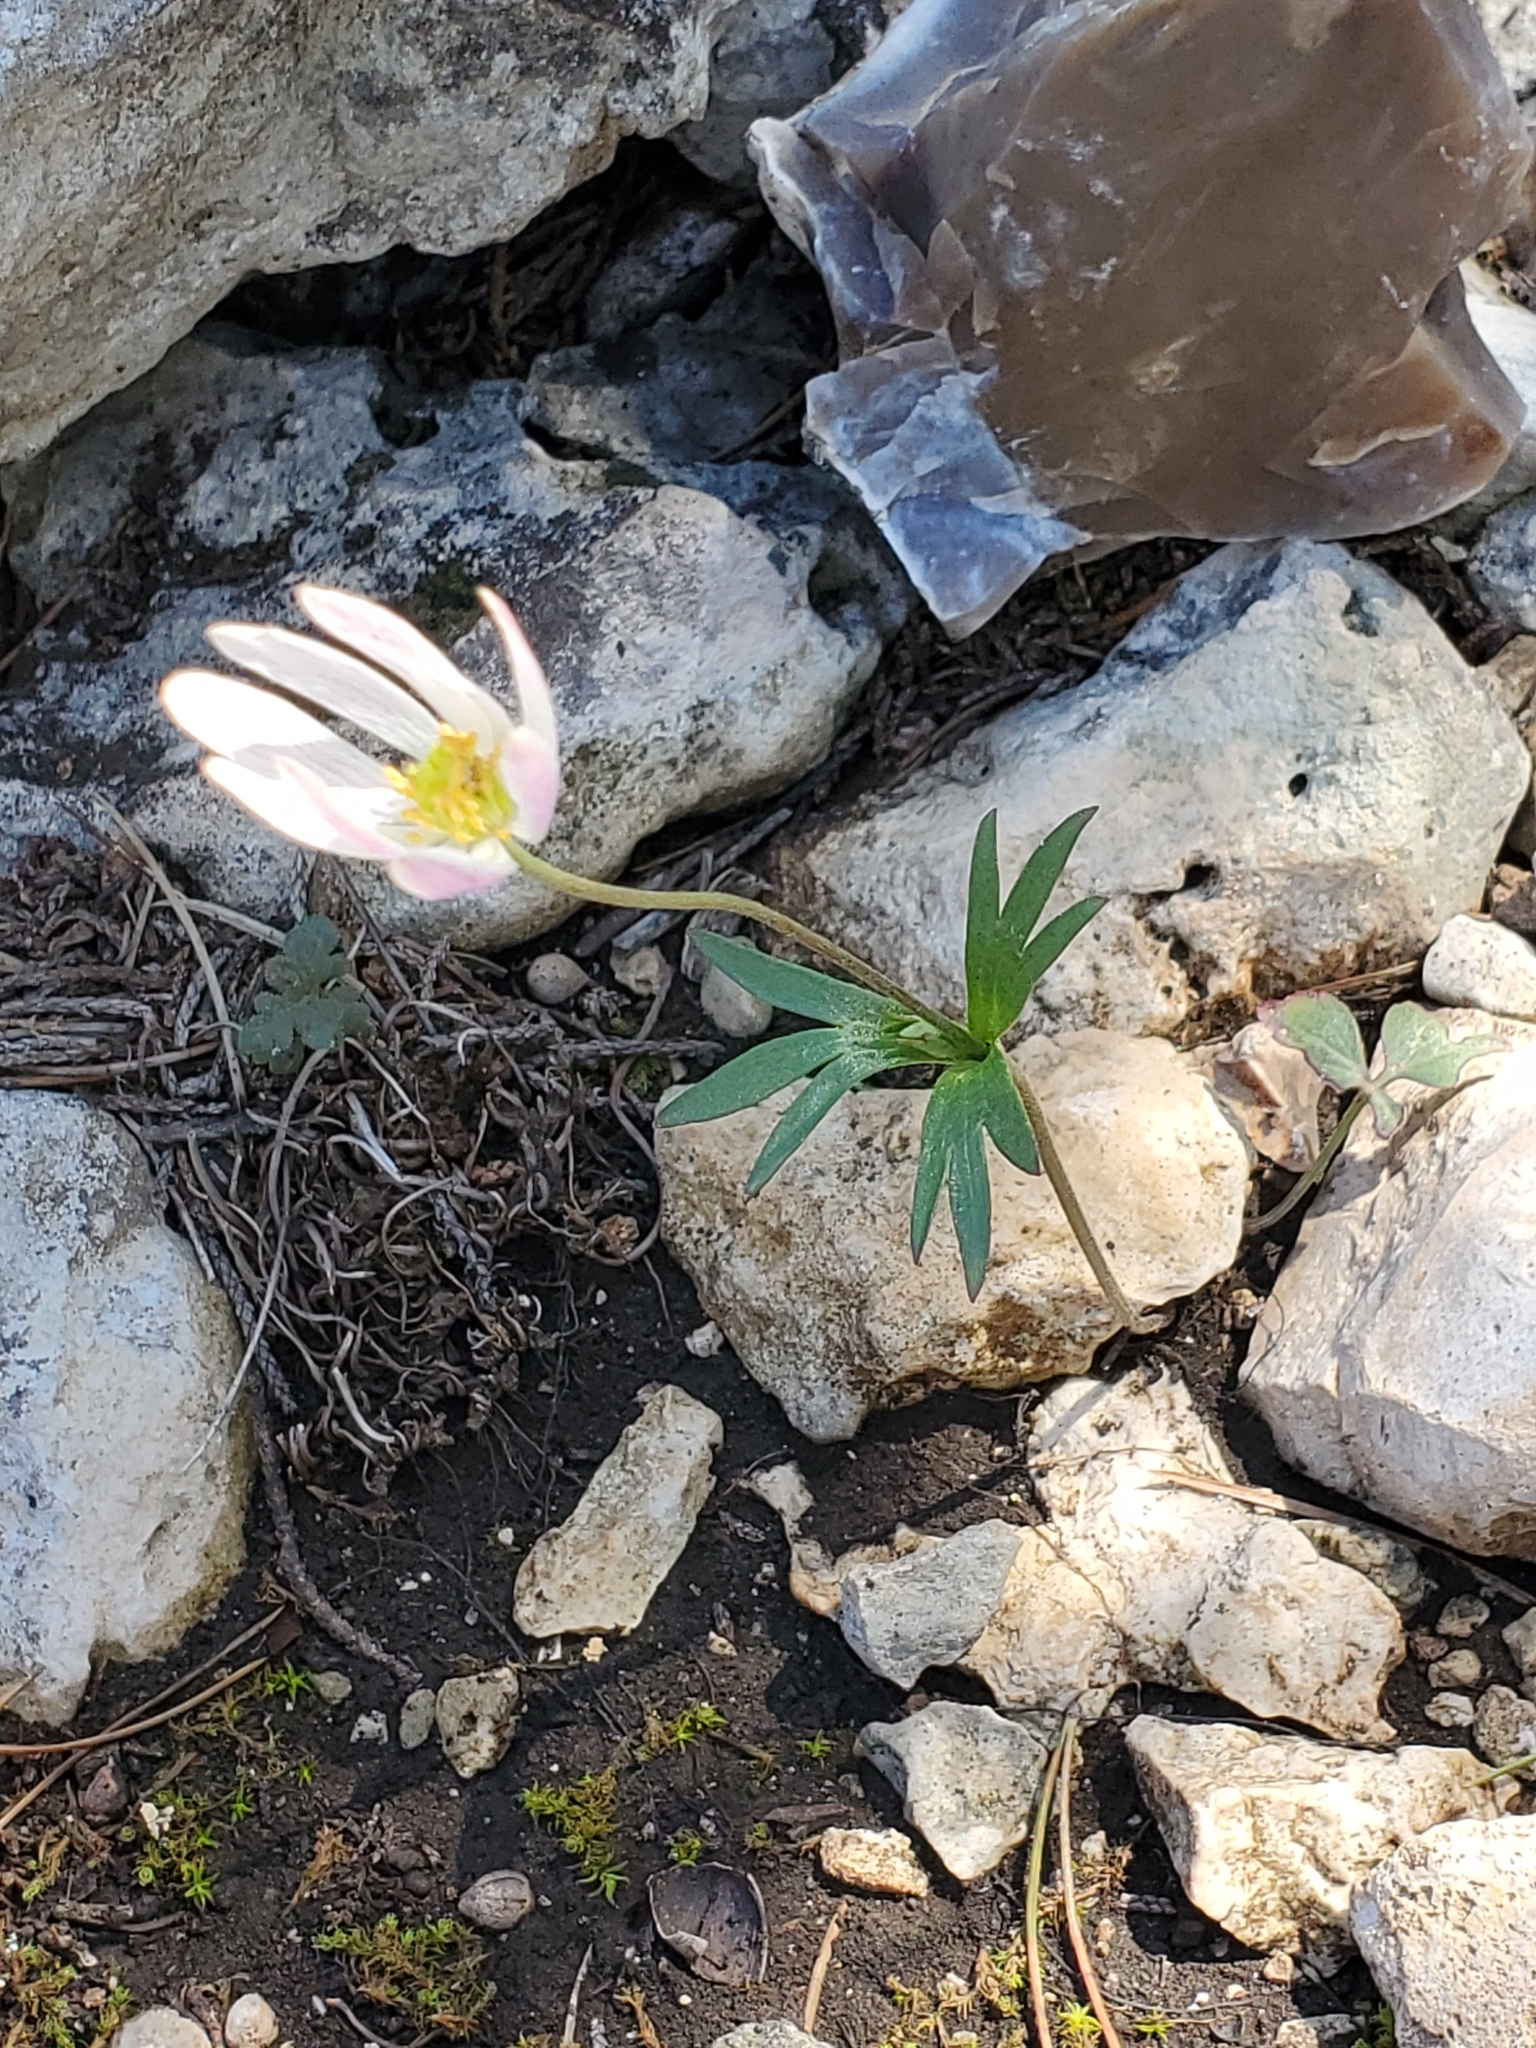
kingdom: Plantae
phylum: Tracheophyta
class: Magnoliopsida
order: Ranunculales
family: Ranunculaceae
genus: Anemone
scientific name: Anemone edwardsiana
